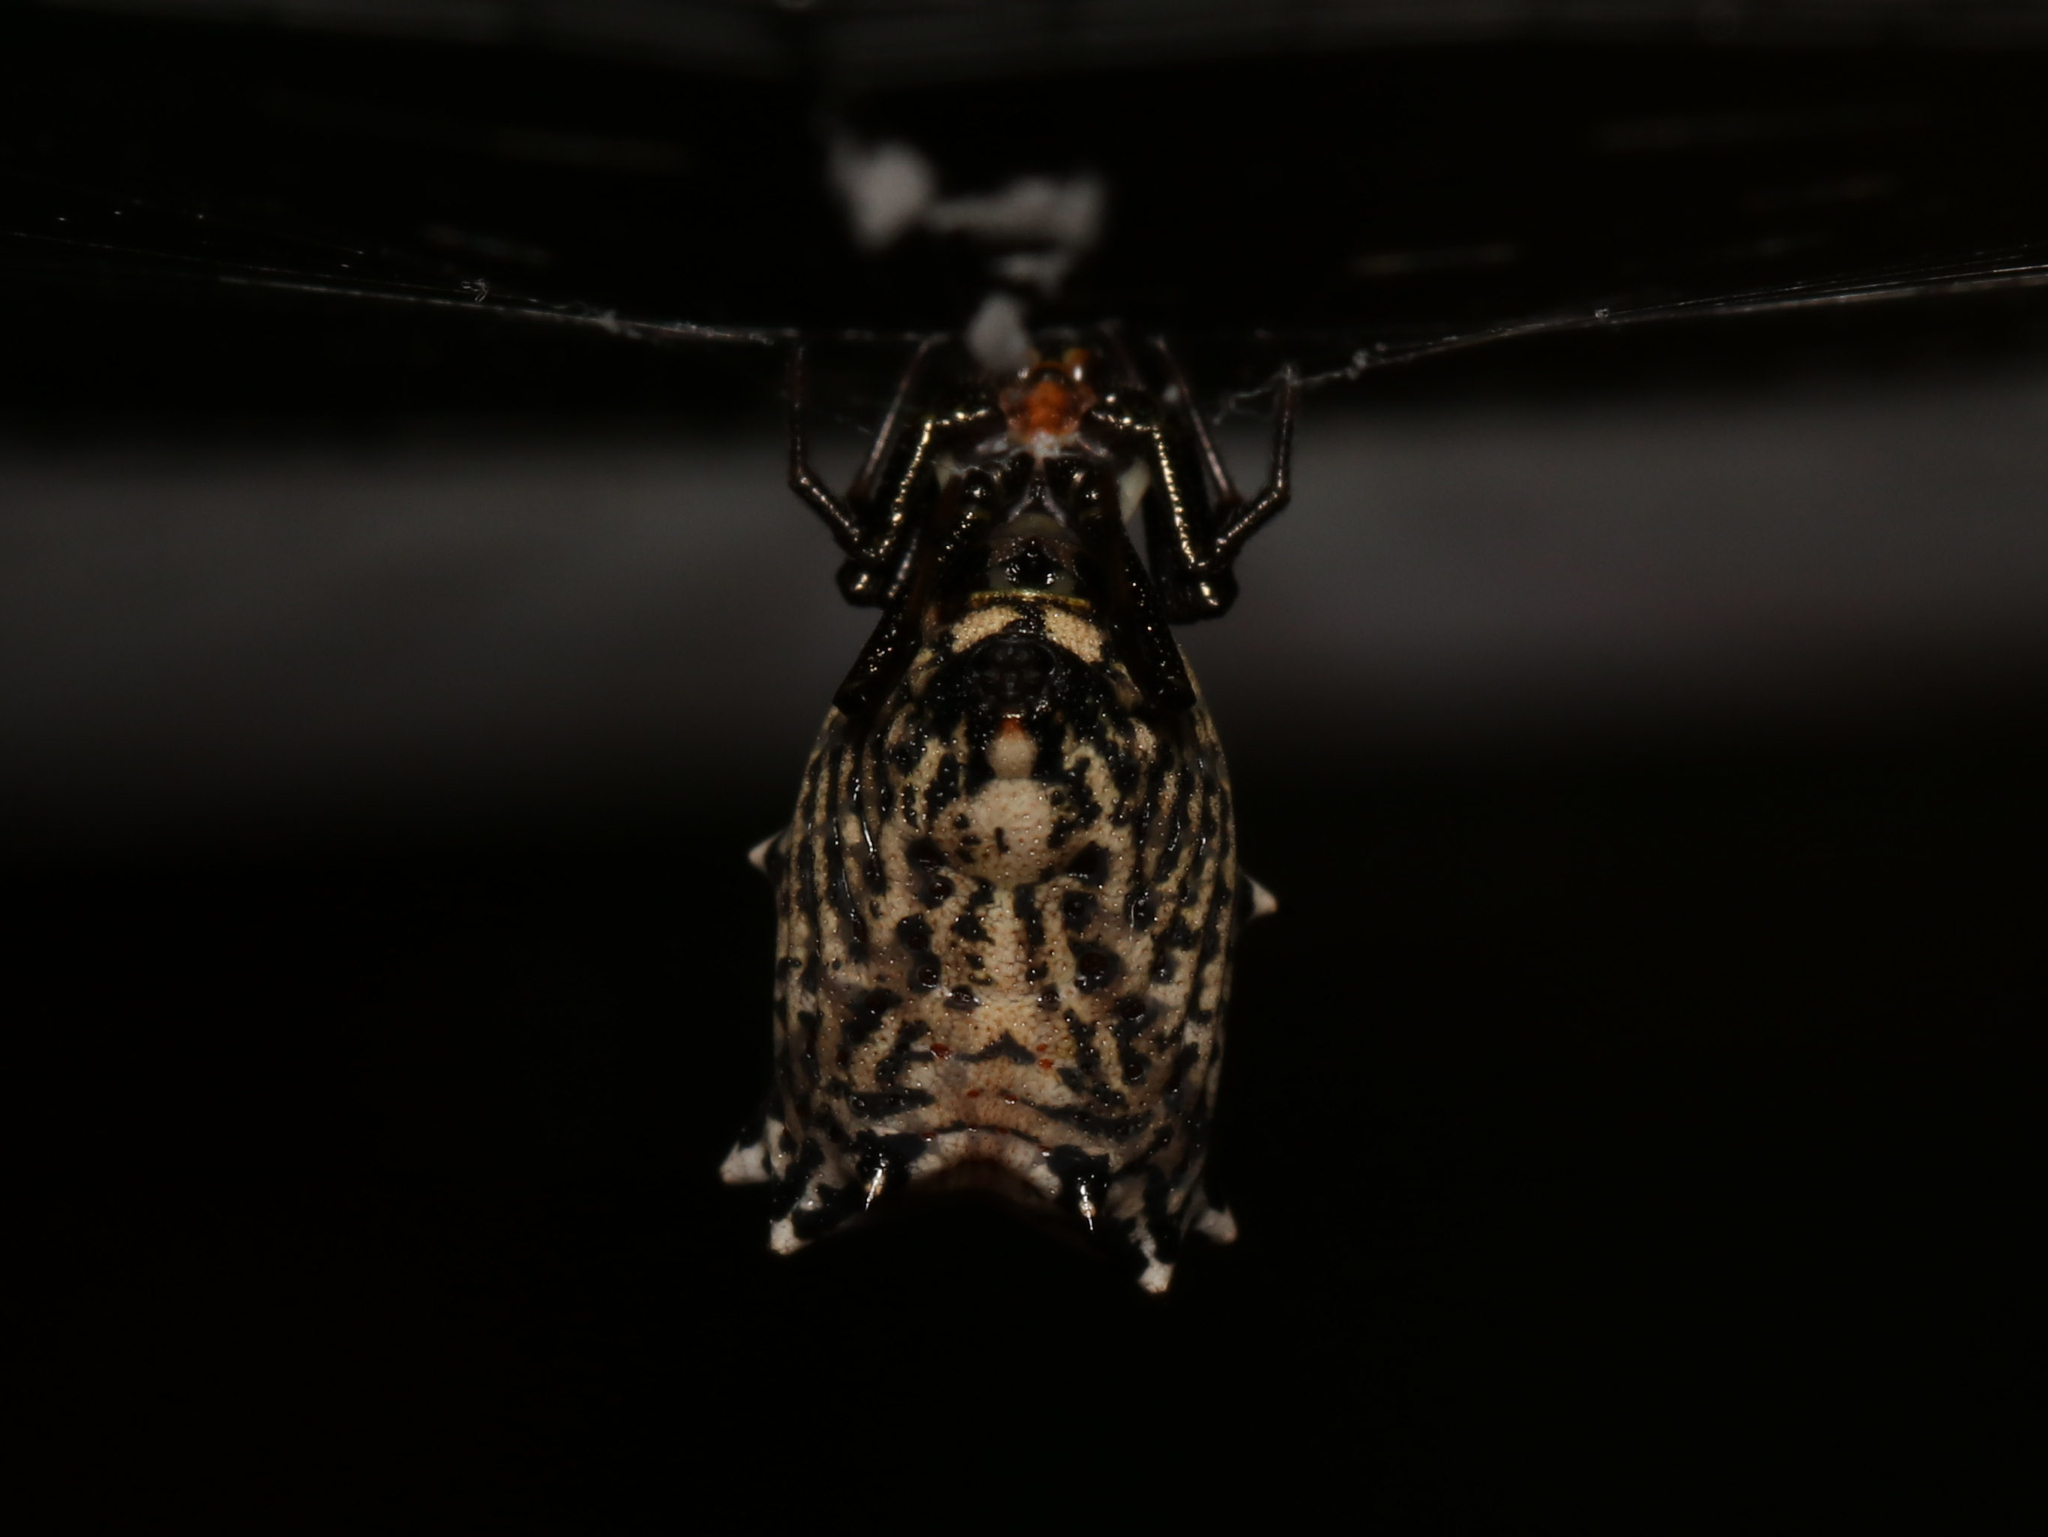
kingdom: Animalia
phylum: Arthropoda
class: Arachnida
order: Araneae
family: Araneidae
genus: Micrathena
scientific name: Micrathena gracilis
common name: Orb weavers
